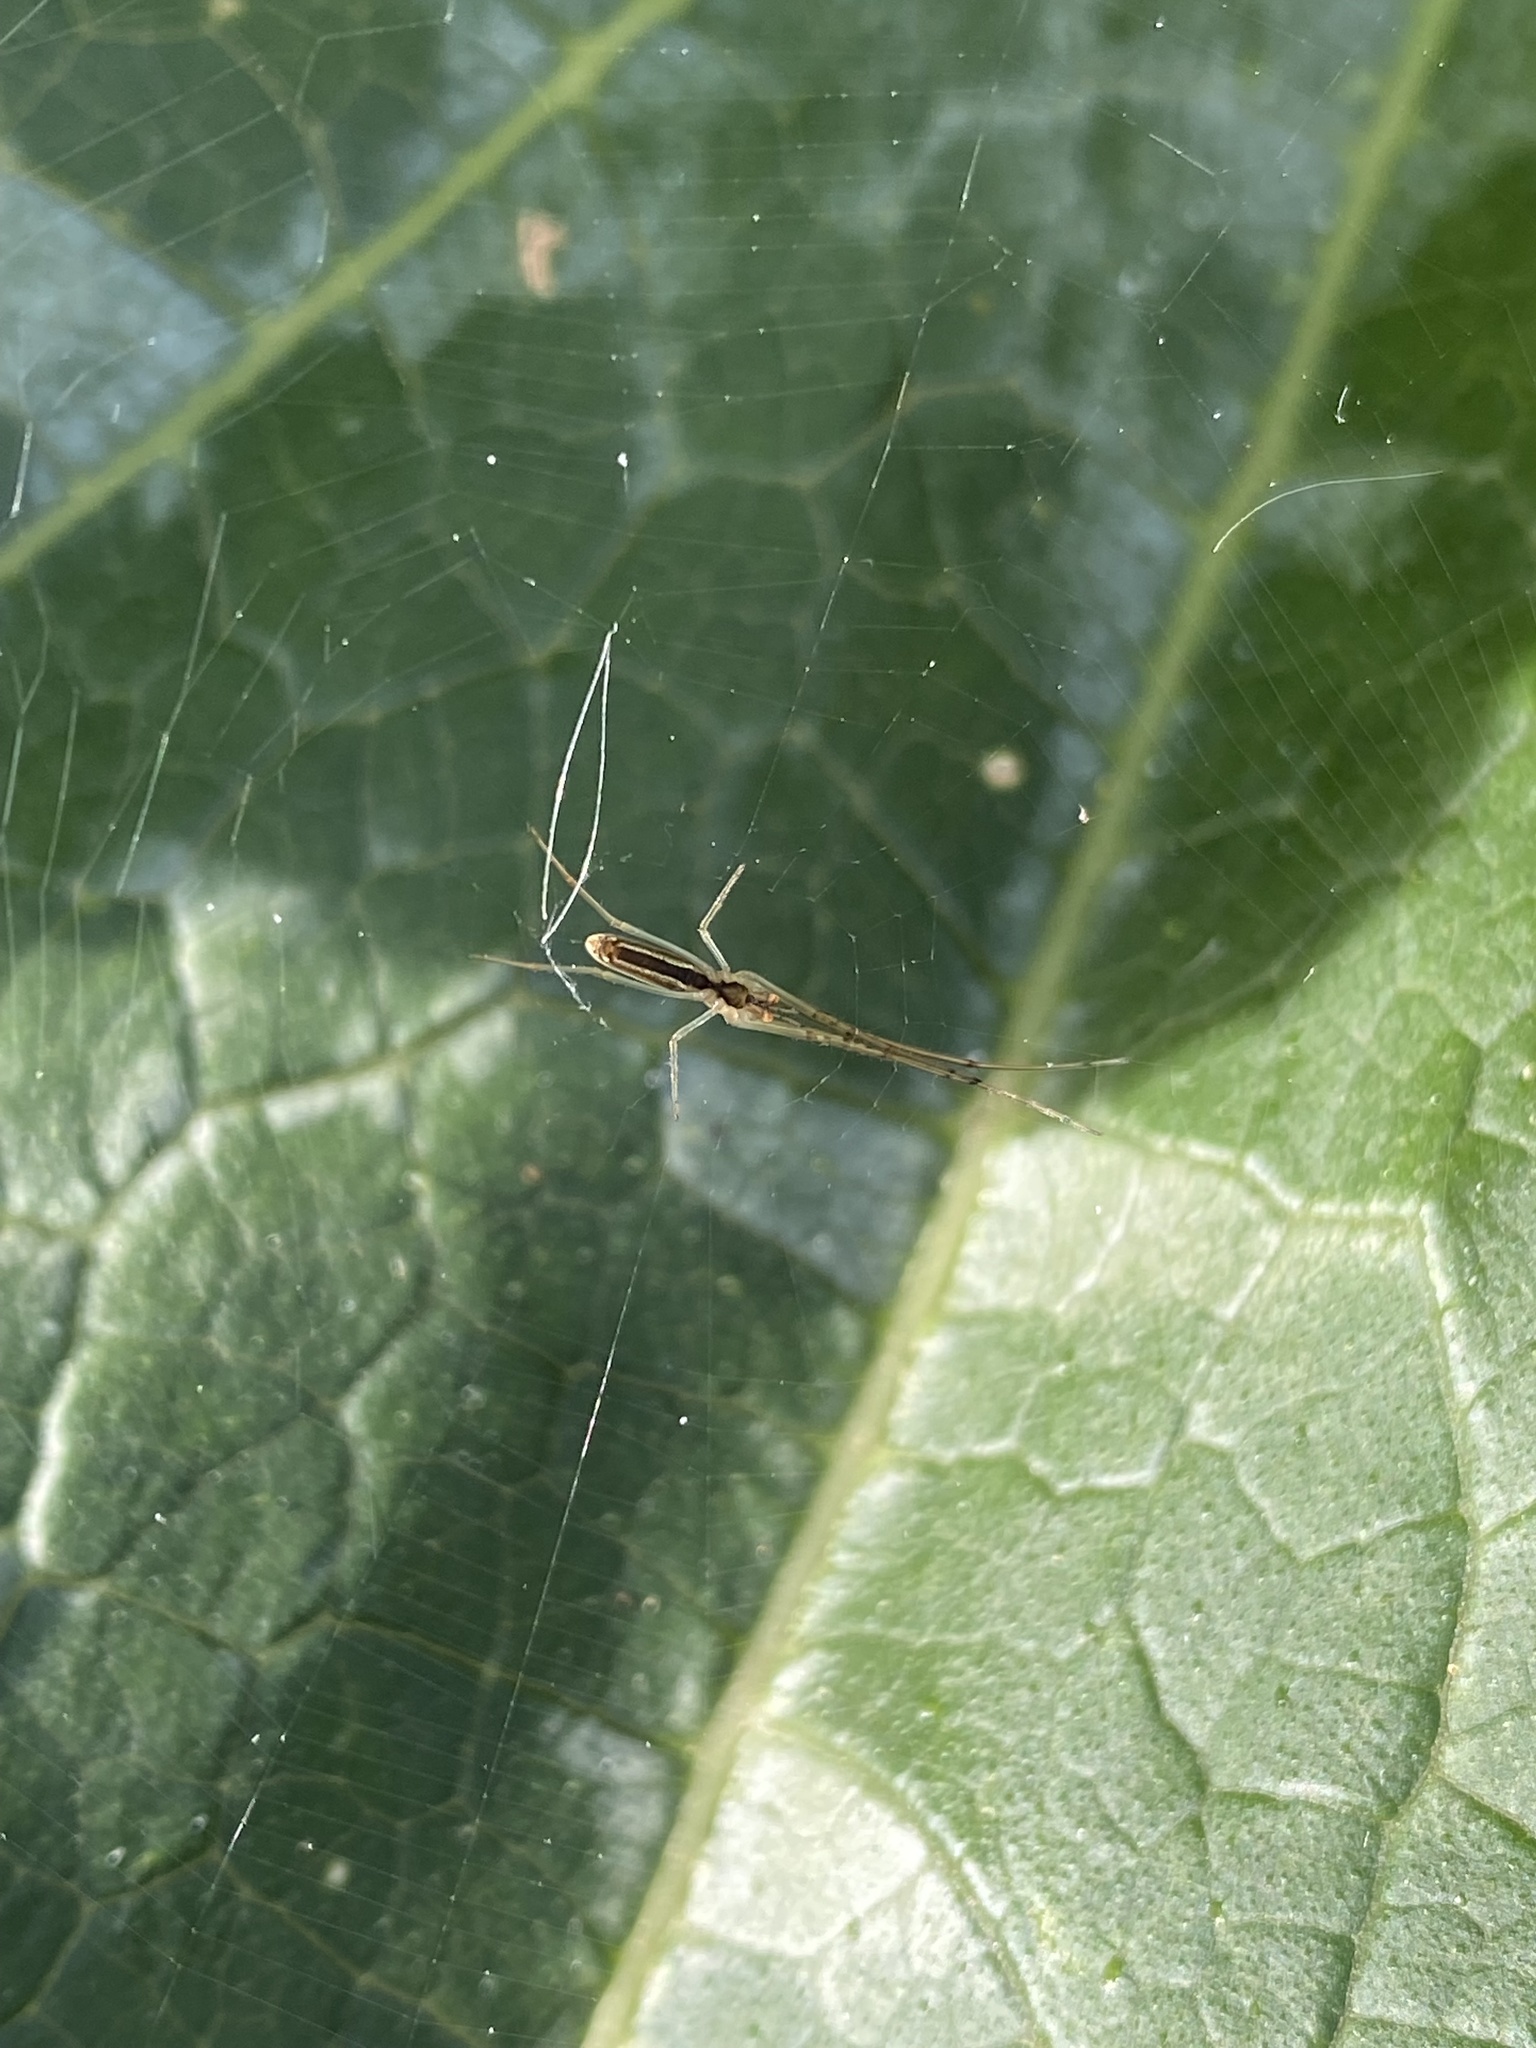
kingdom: Animalia
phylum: Arthropoda
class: Arachnida
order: Araneae
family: Tetragnathidae
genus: Tetragnatha
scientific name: Tetragnatha
